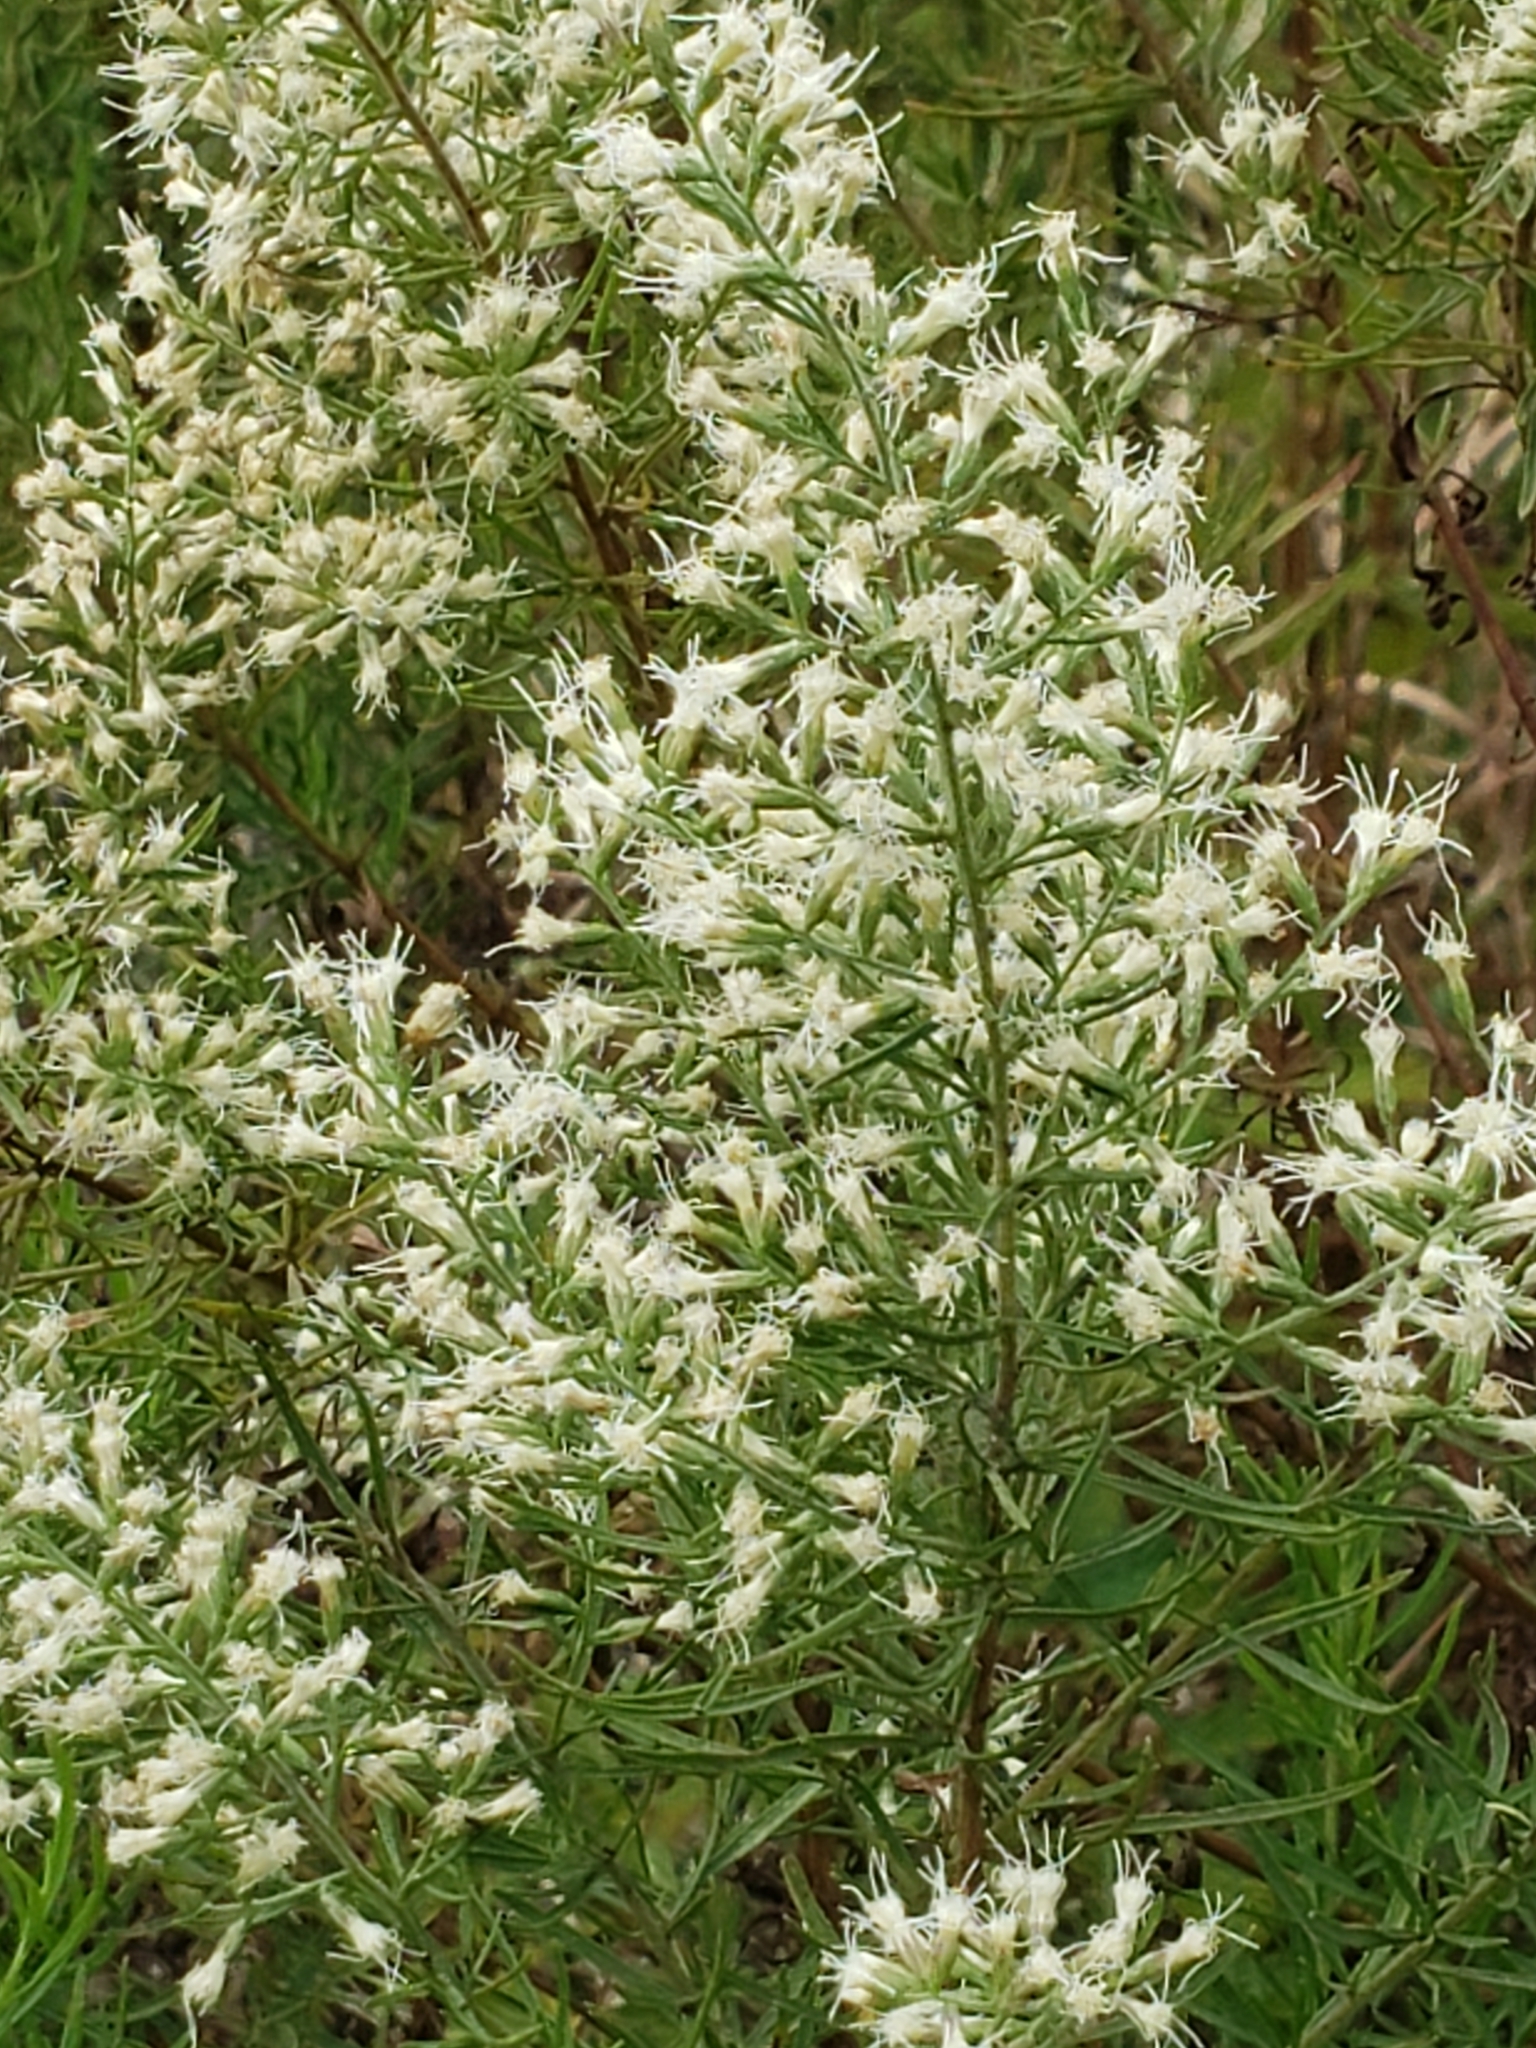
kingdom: Plantae
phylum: Tracheophyta
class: Magnoliopsida
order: Asterales
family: Asteraceae
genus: Eupatorium
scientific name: Eupatorium compositifolium
